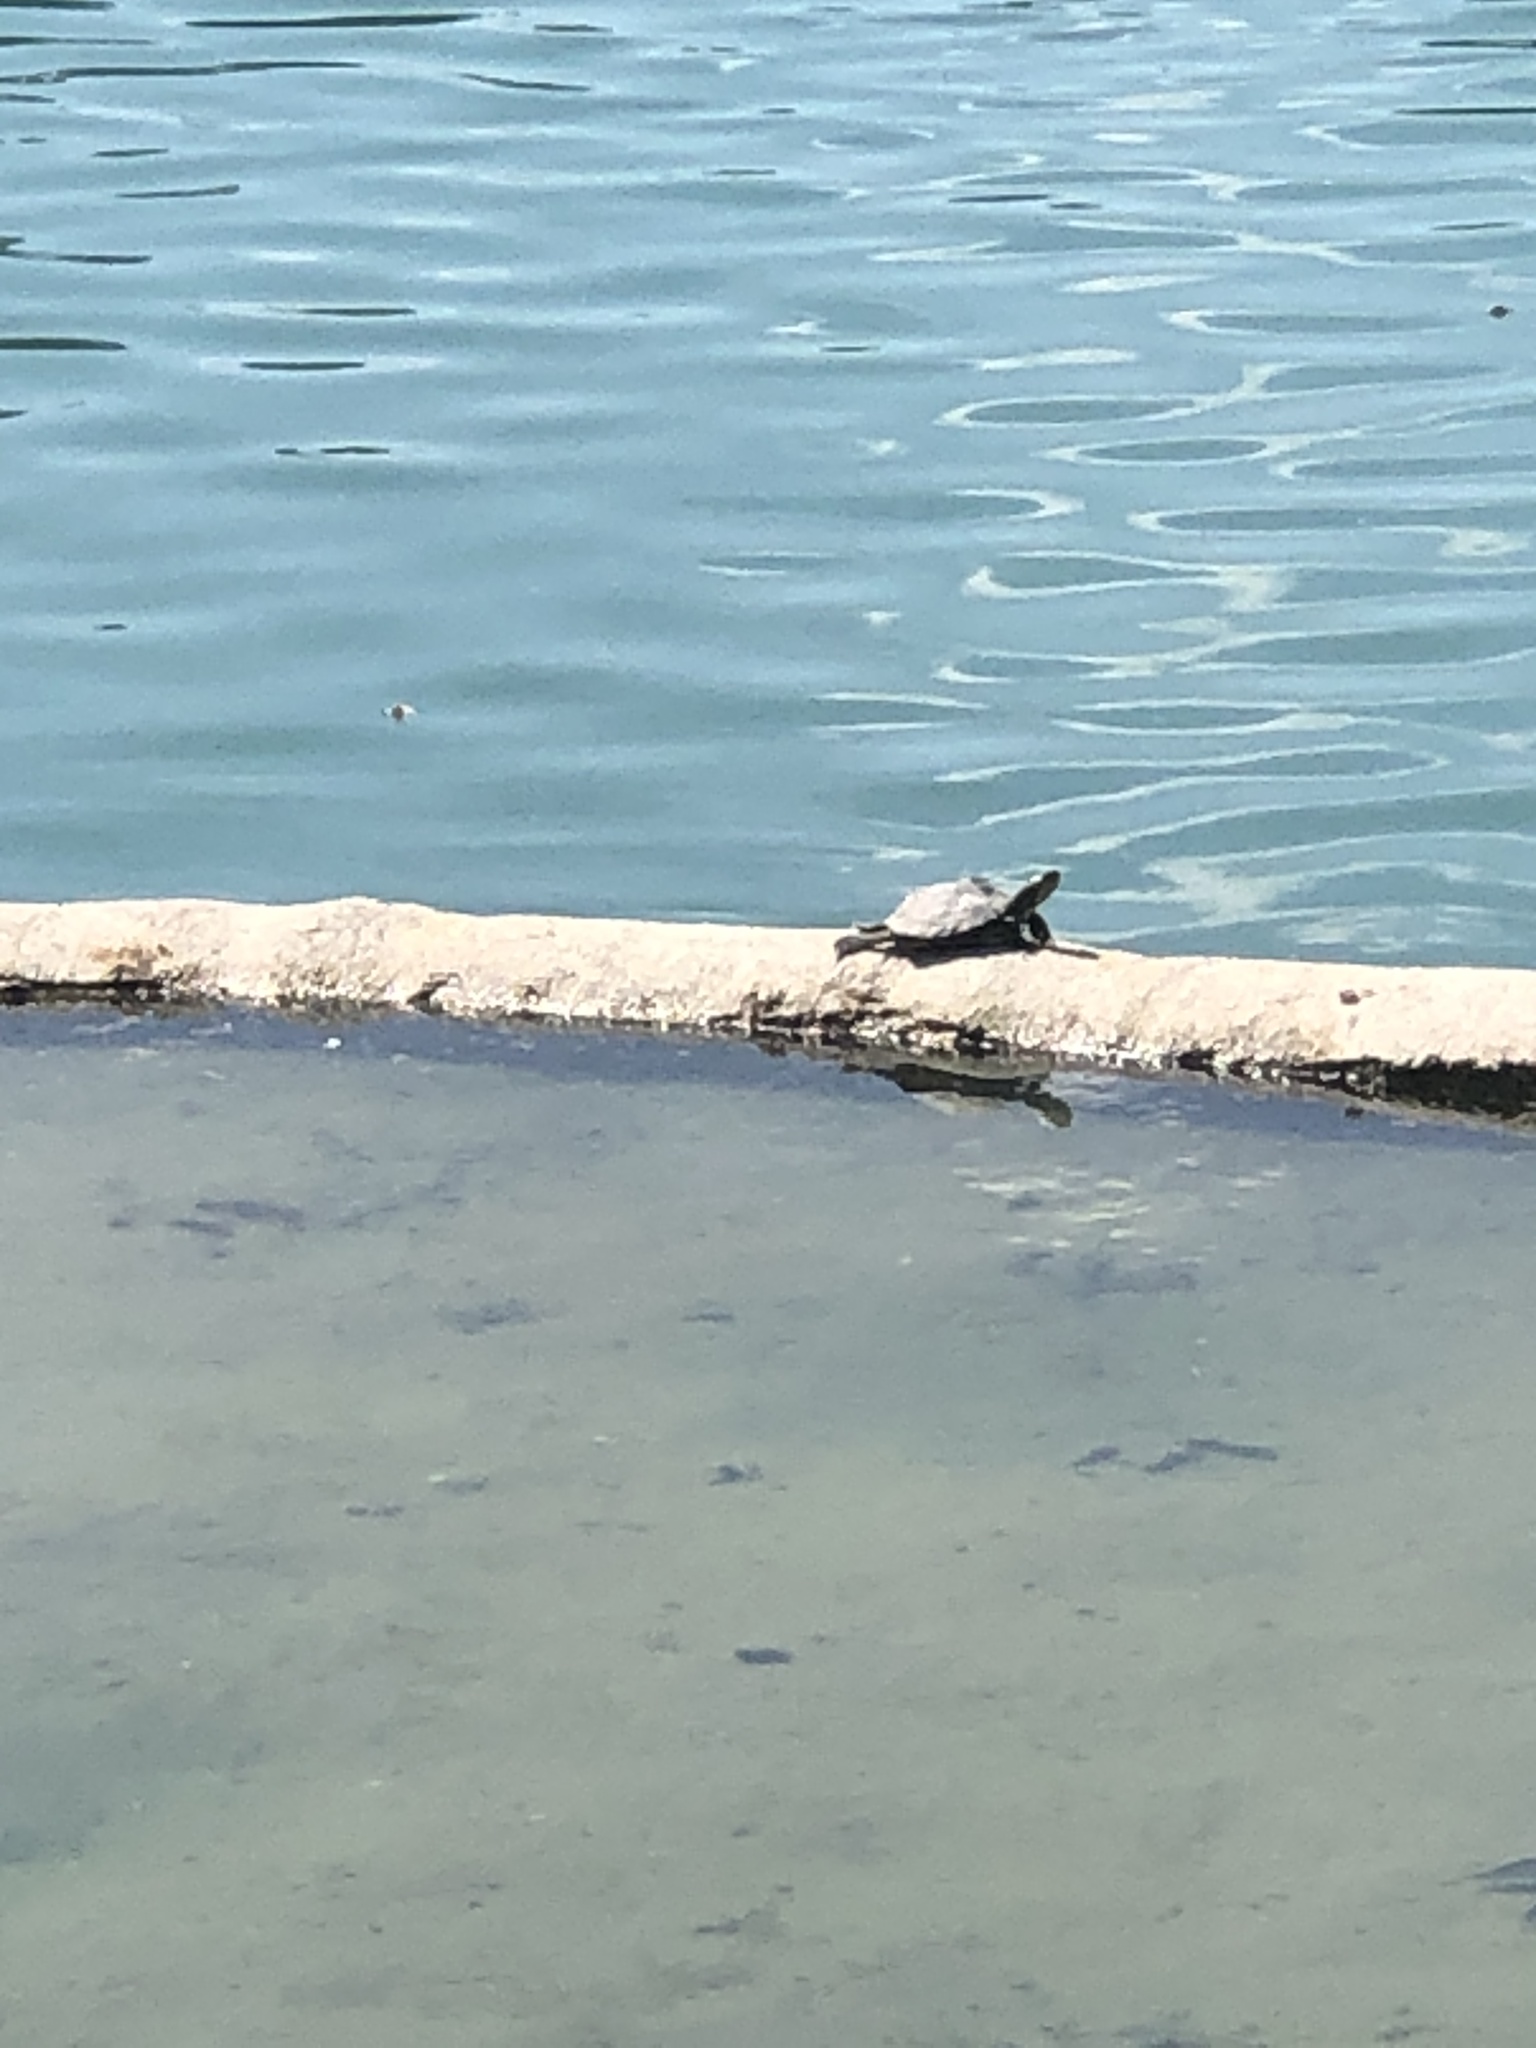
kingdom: Animalia
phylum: Chordata
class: Testudines
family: Emydidae
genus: Trachemys
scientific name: Trachemys scripta
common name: Slider
